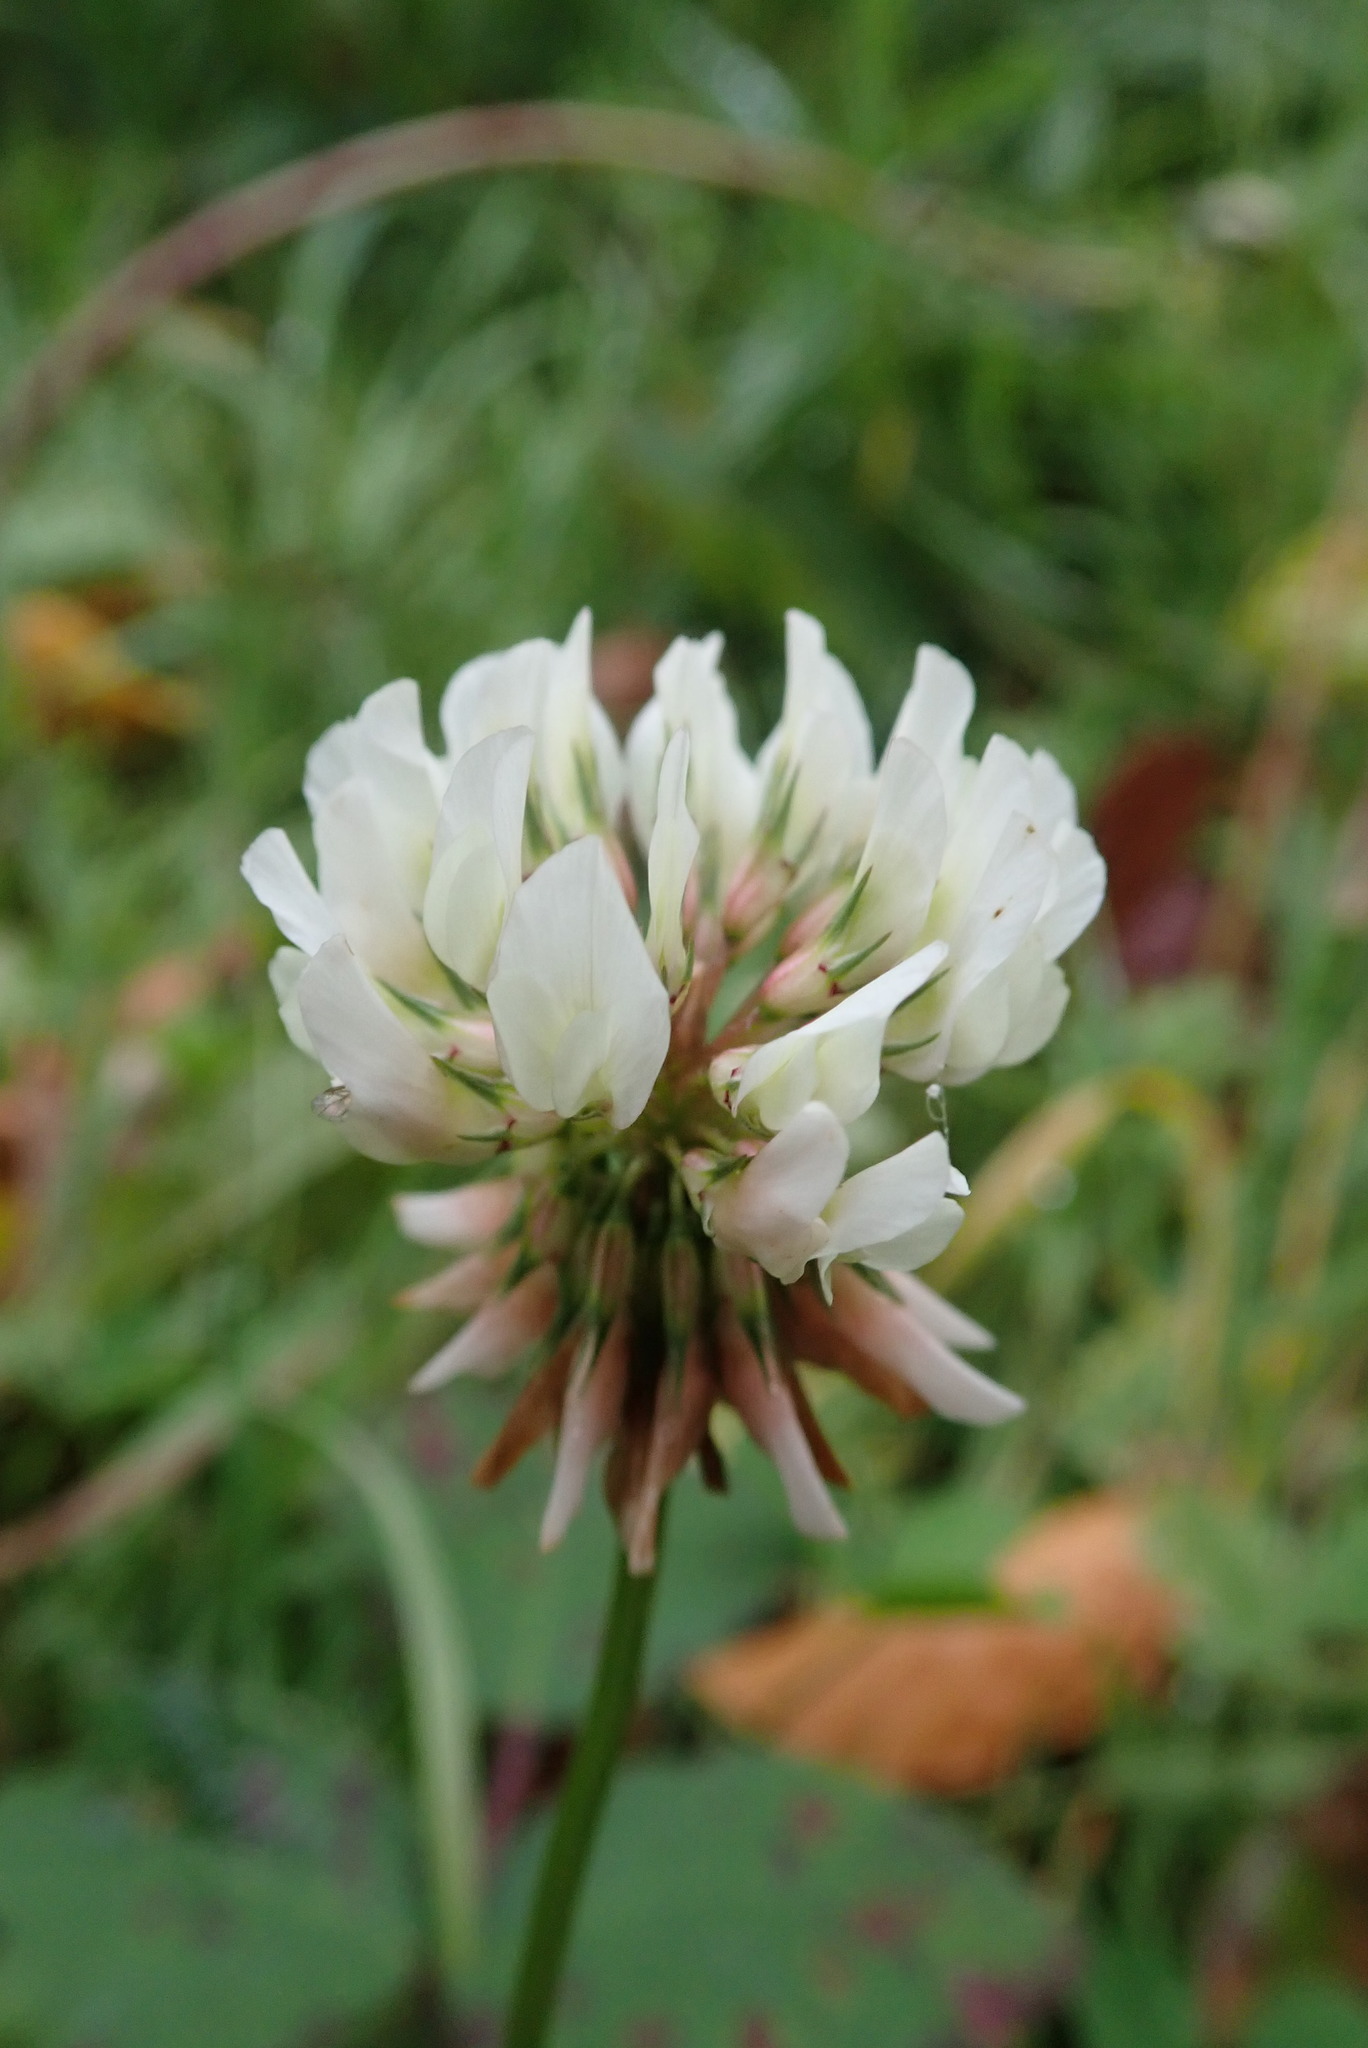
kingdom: Plantae
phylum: Tracheophyta
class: Magnoliopsida
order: Fabales
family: Fabaceae
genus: Trifolium
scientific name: Trifolium repens
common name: White clover
